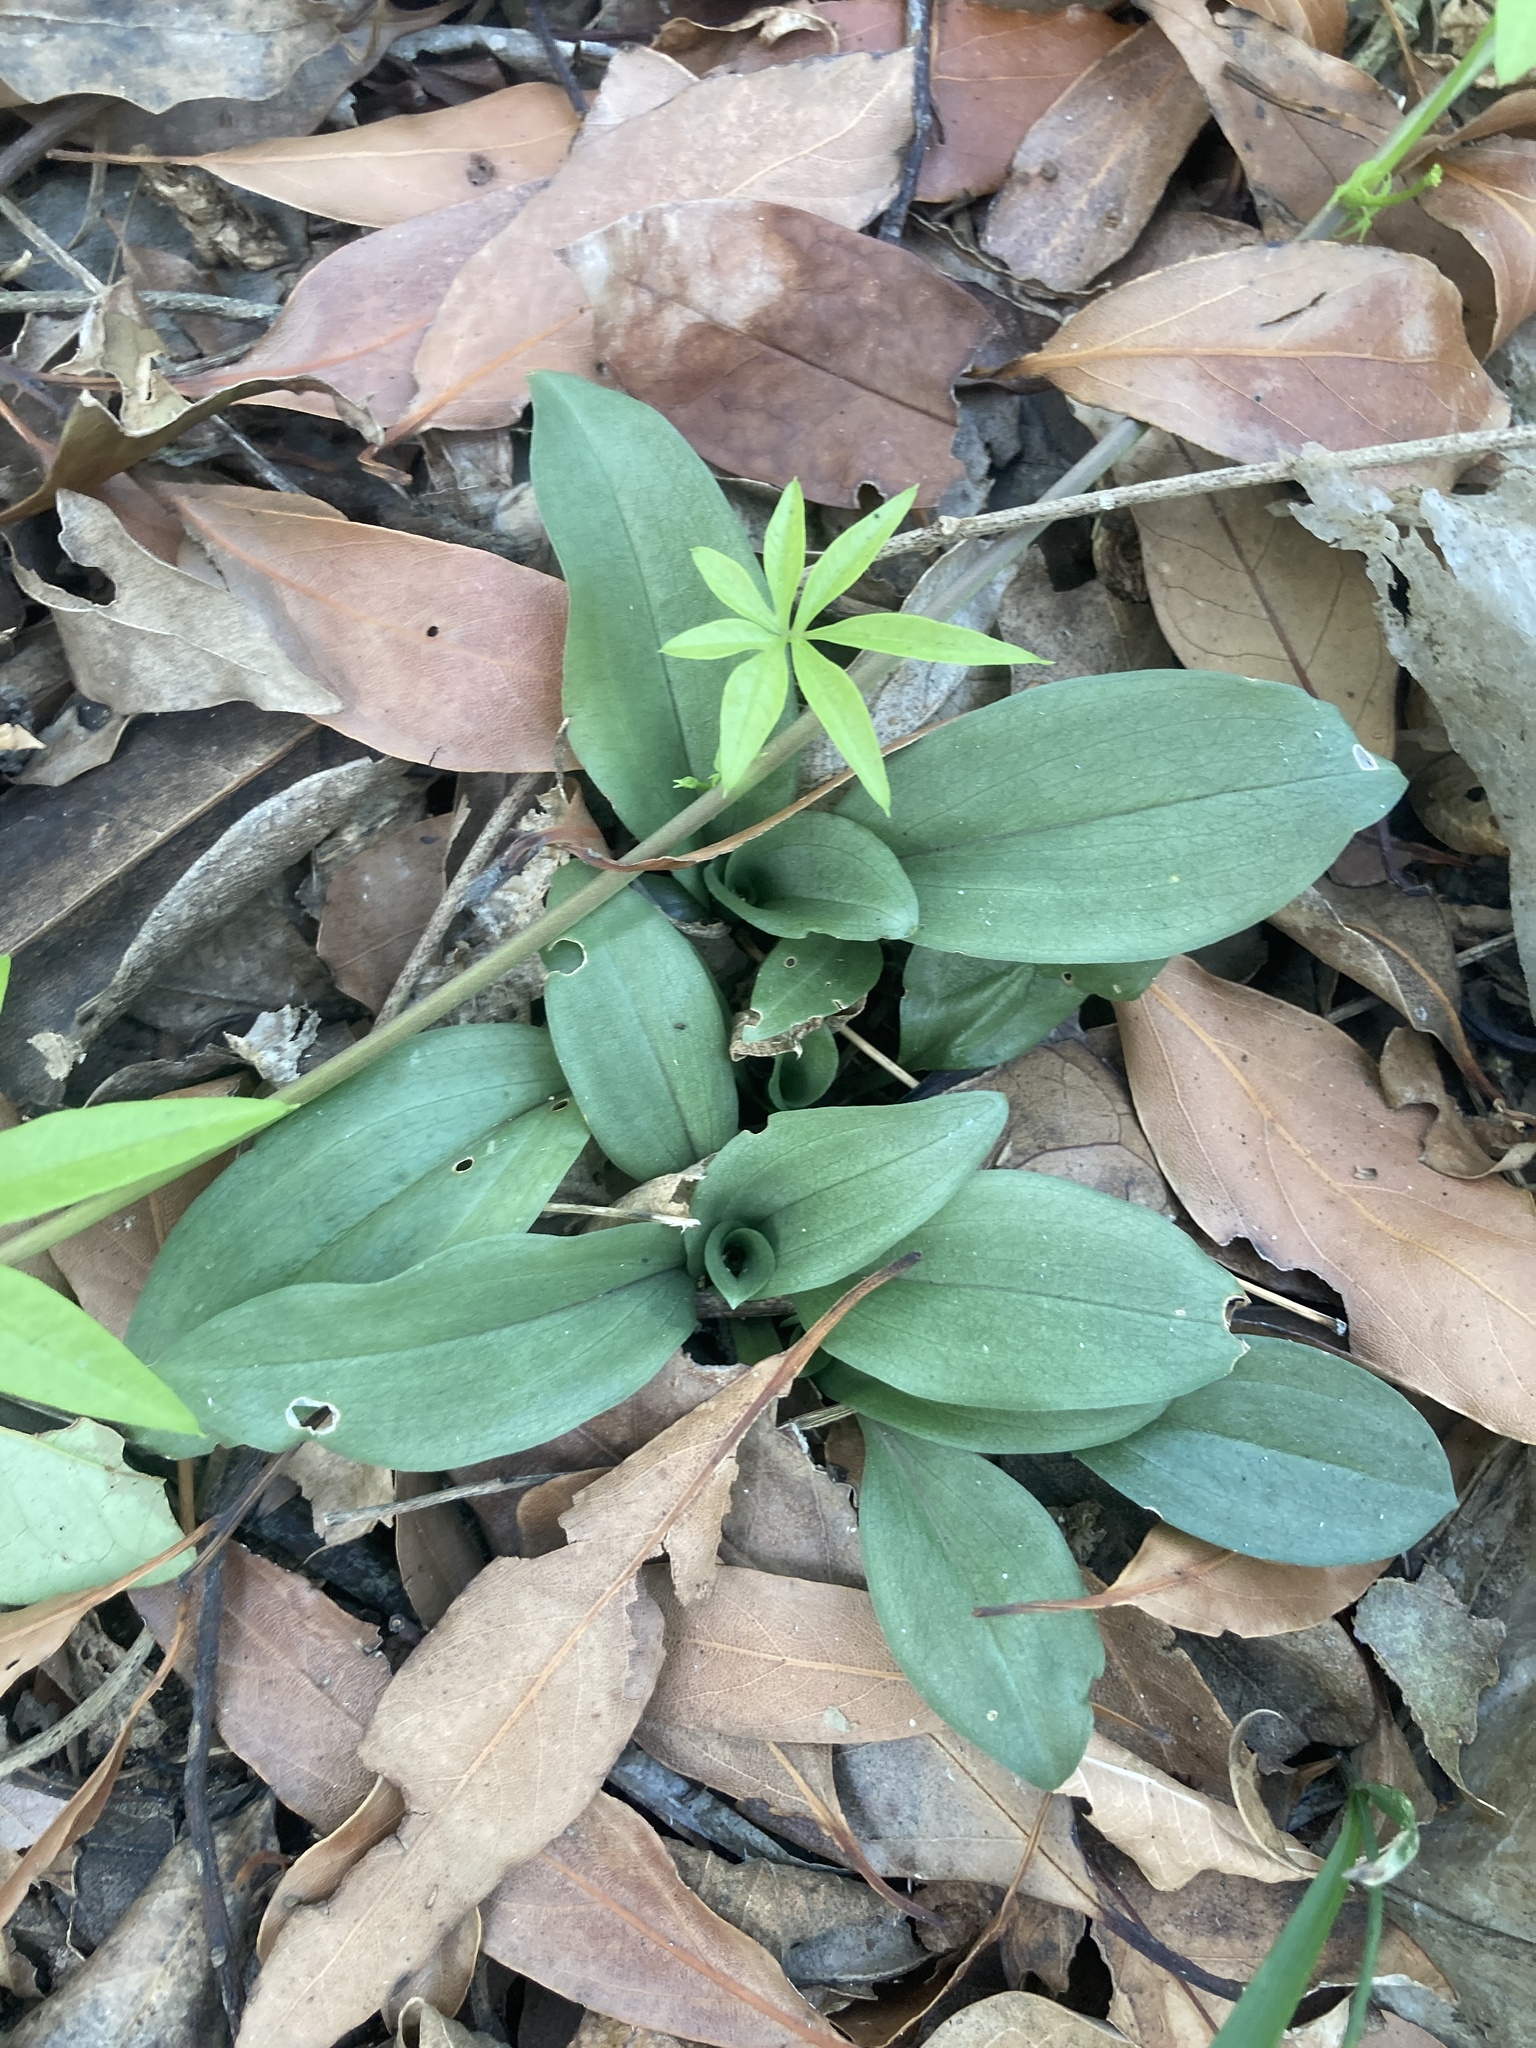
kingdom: Plantae
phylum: Tracheophyta
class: Liliopsida
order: Asparagales
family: Orchidaceae
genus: Cyclopogon
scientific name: Cyclopogon elatus
